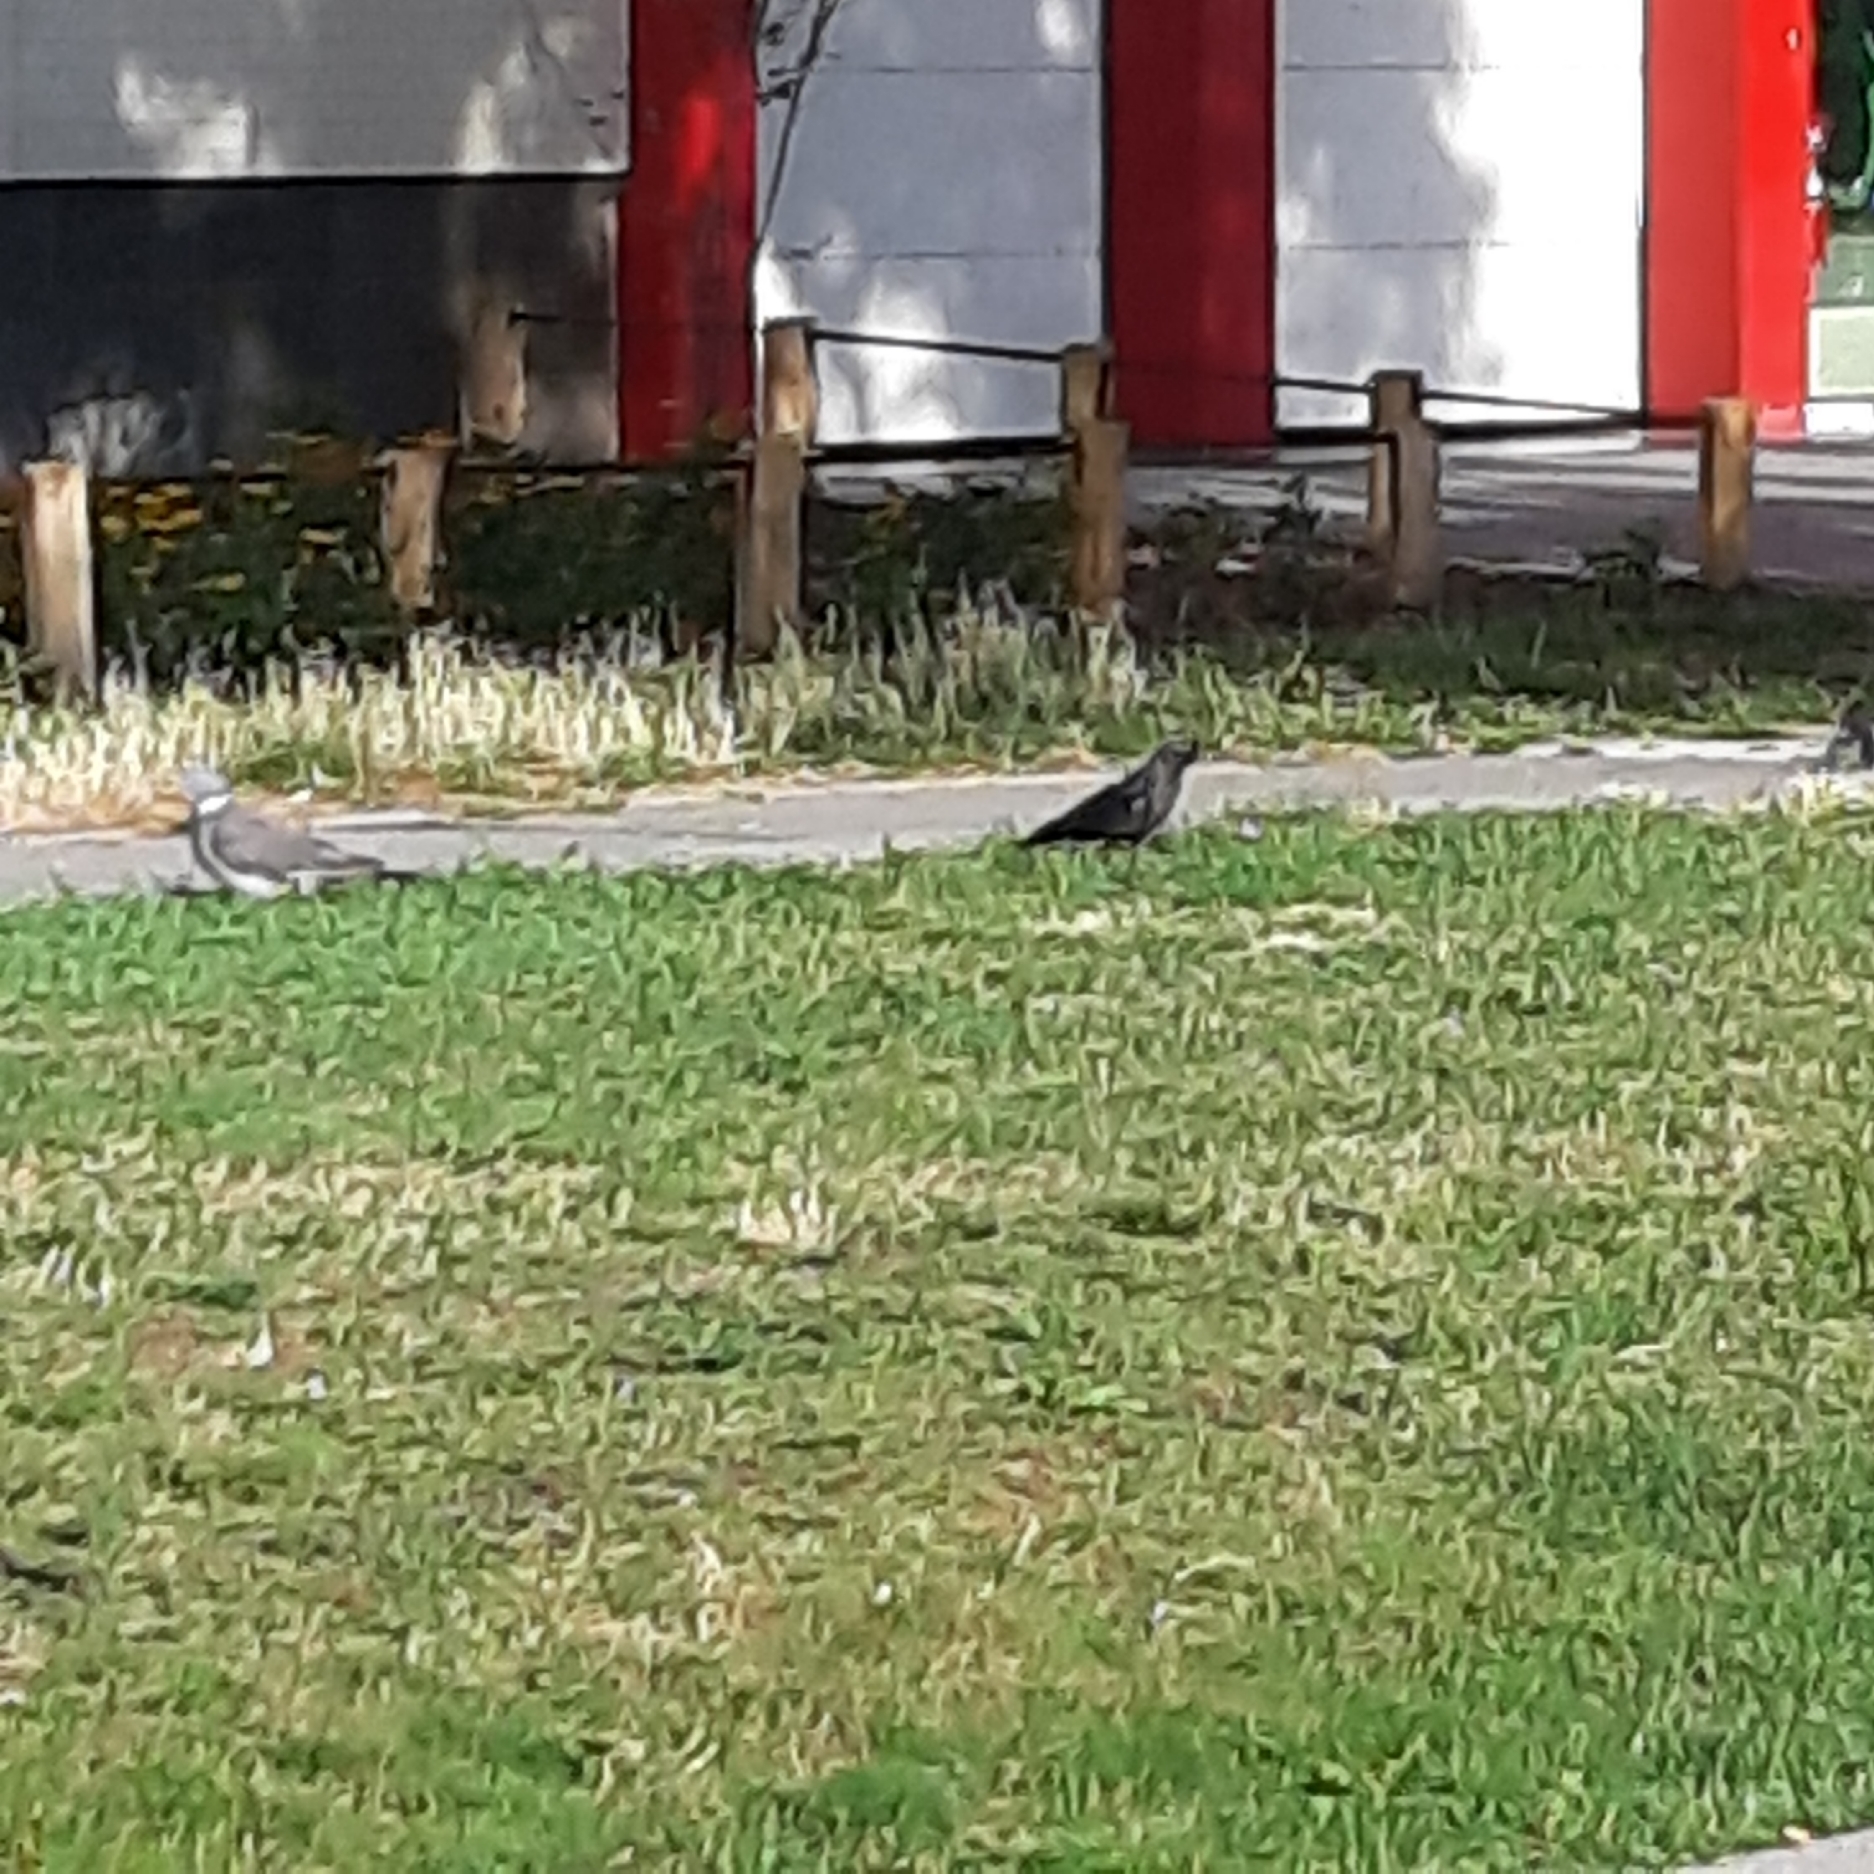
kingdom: Animalia
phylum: Chordata
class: Aves
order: Columbiformes
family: Columbidae
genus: Columba
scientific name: Columba palumbus
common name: Common wood pigeon
